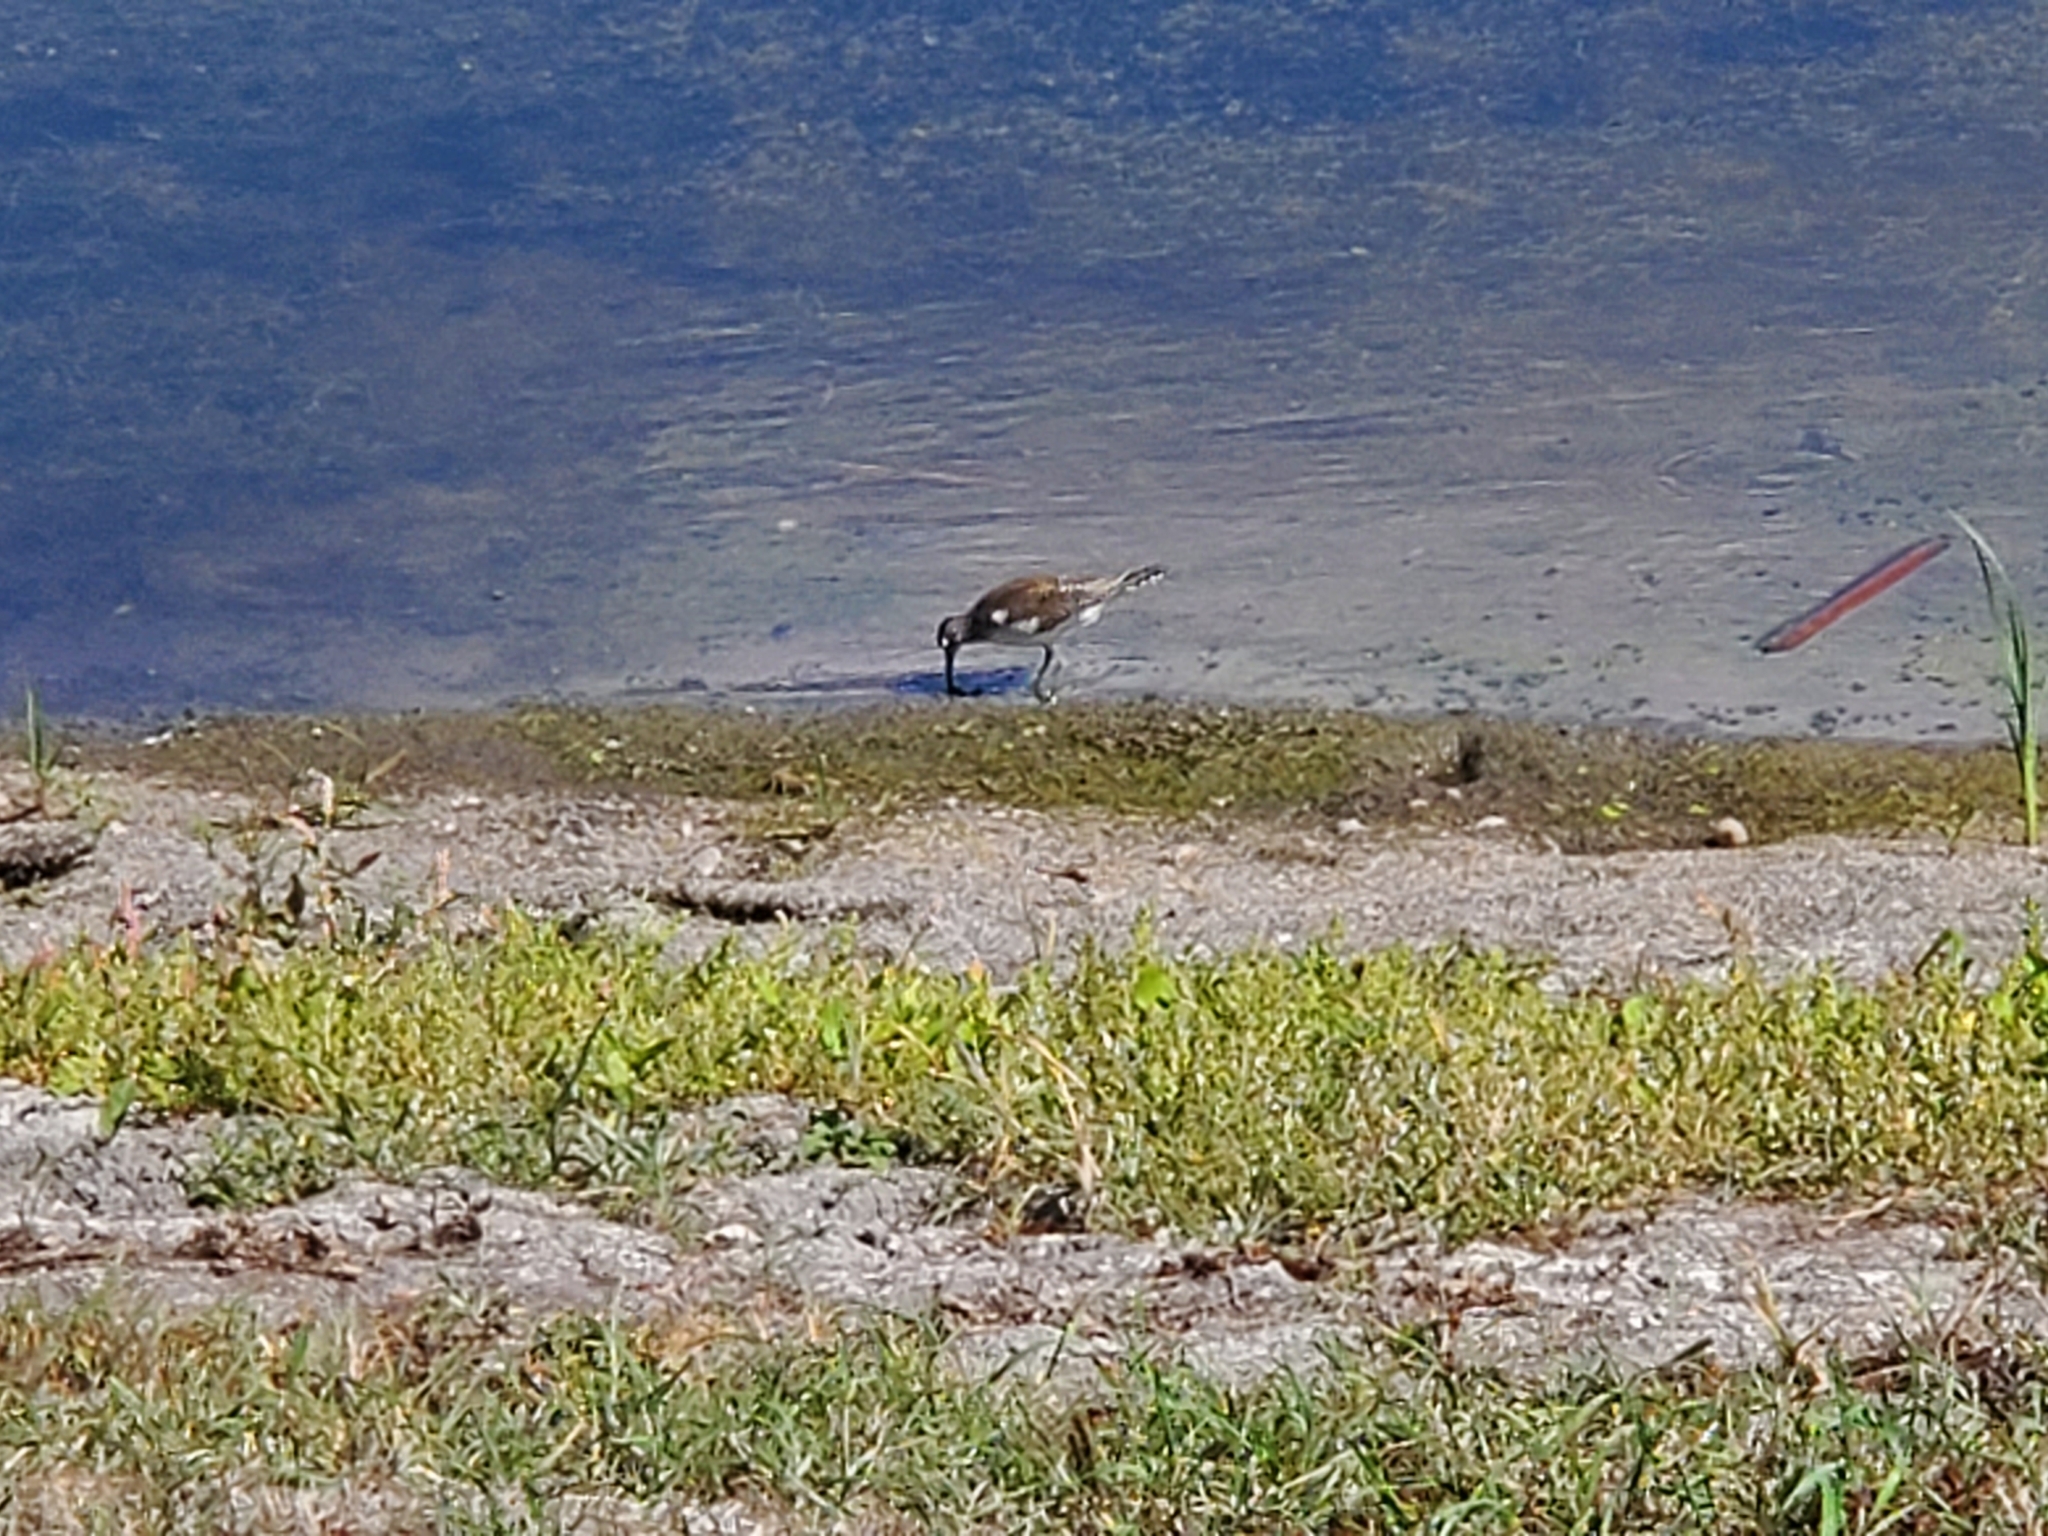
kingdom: Animalia
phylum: Chordata
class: Aves
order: Charadriiformes
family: Scolopacidae
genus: Tringa
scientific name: Tringa solitaria
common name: Solitary sandpiper
